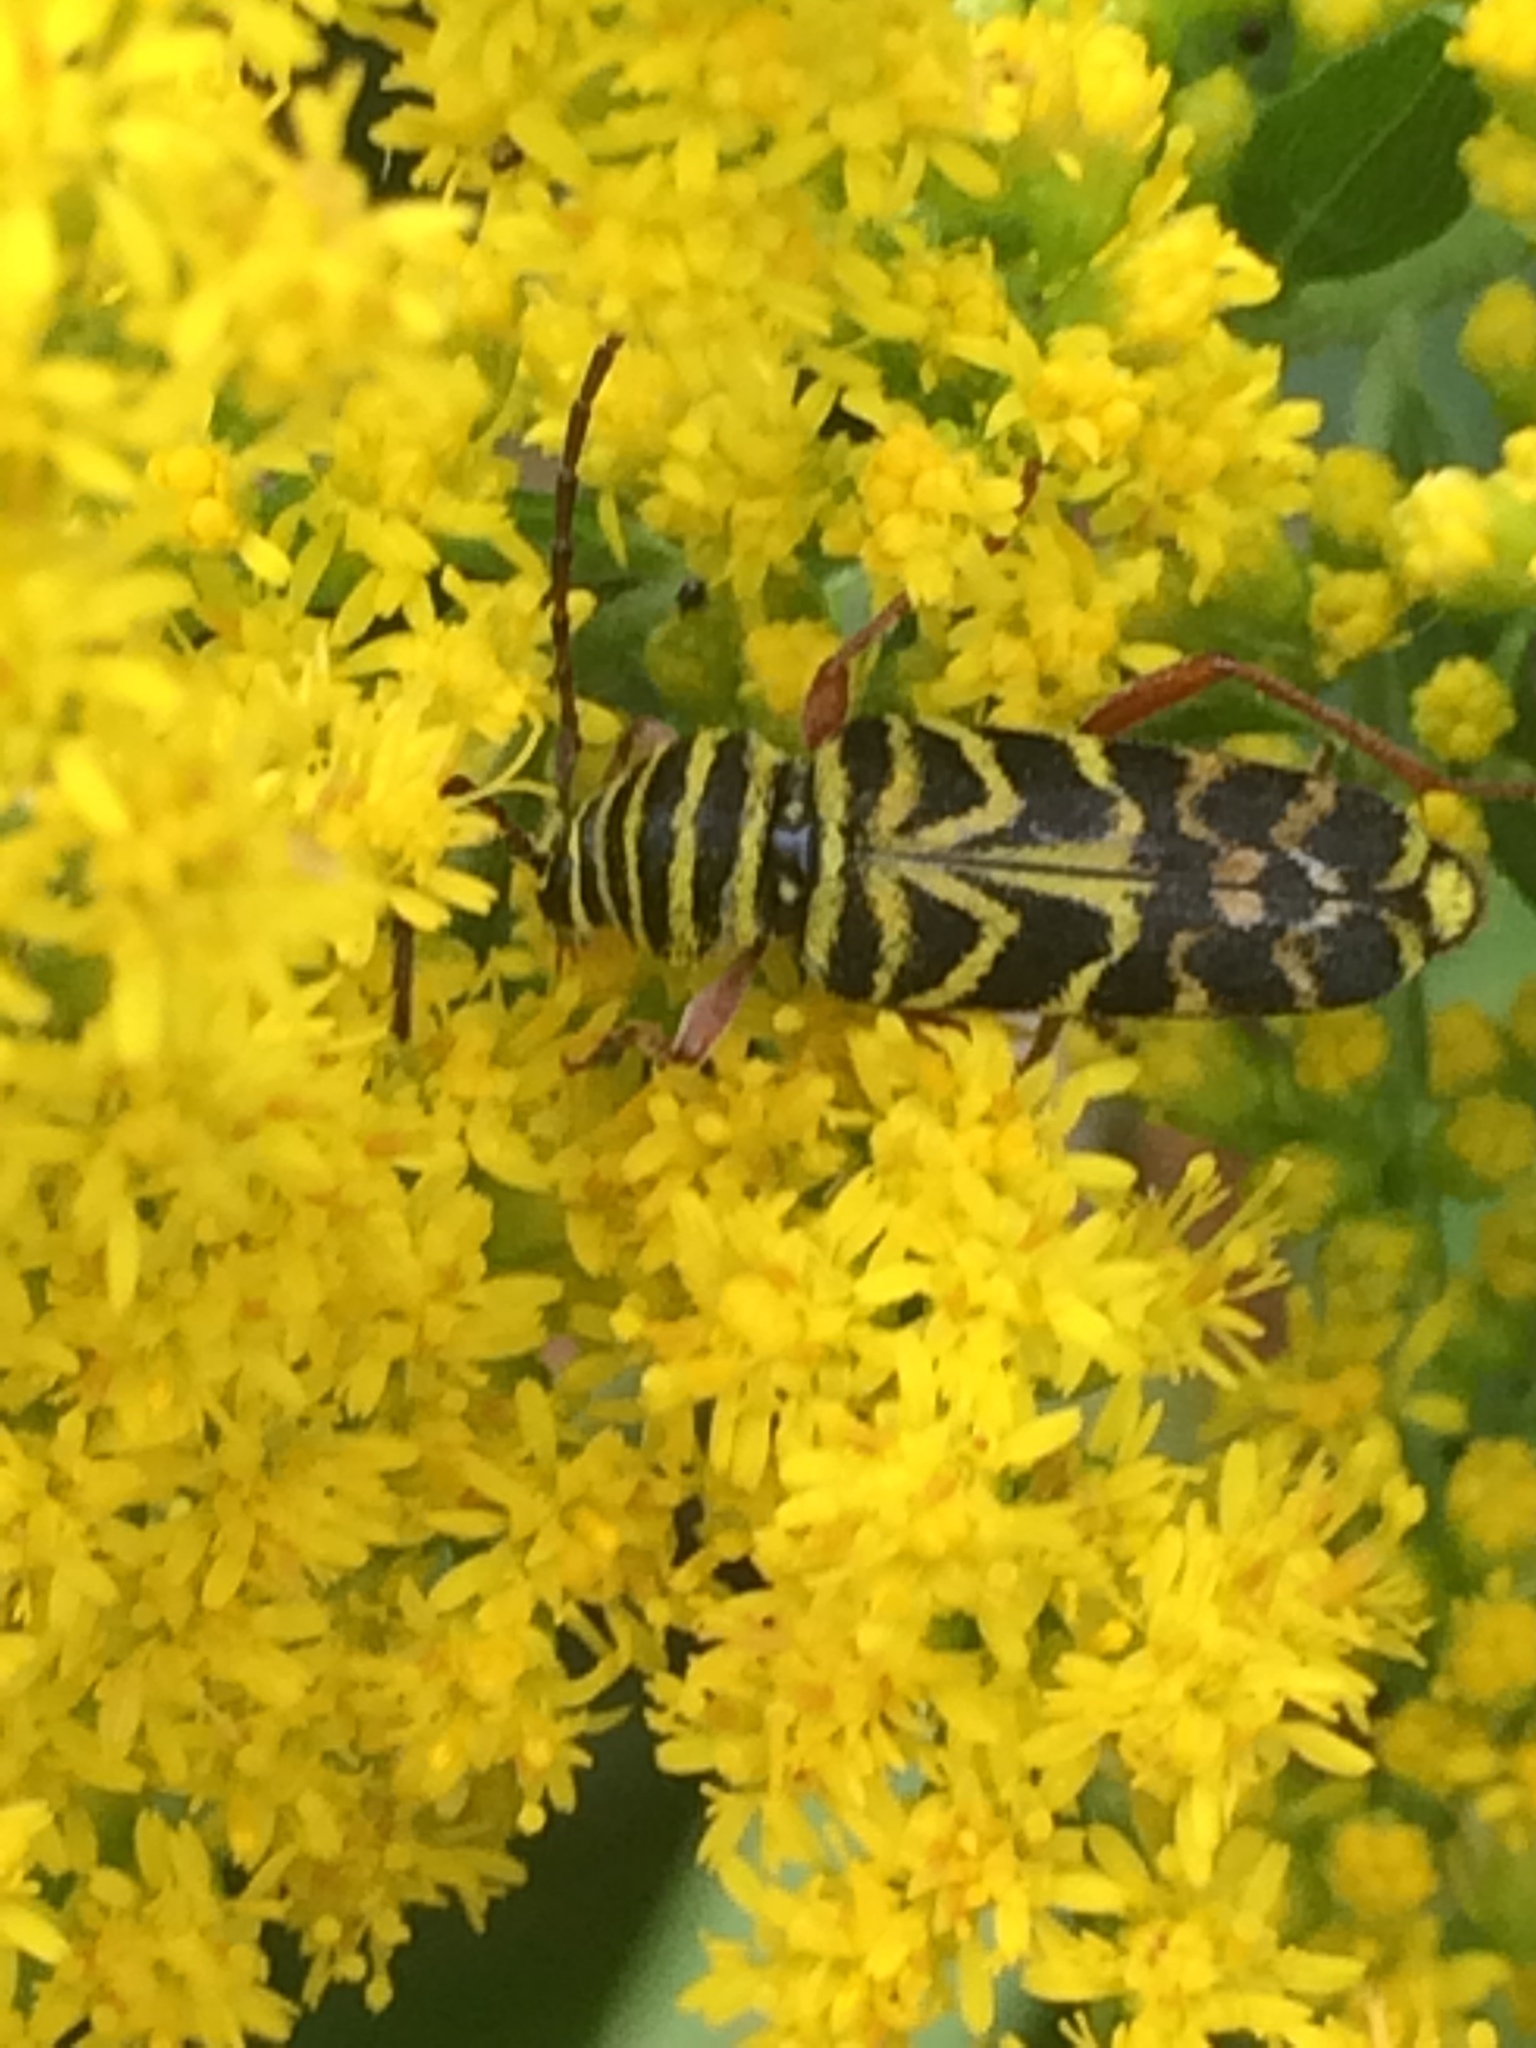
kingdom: Animalia
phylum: Arthropoda
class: Insecta
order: Coleoptera
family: Cerambycidae
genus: Megacyllene
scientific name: Megacyllene robiniae
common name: Locust borer
